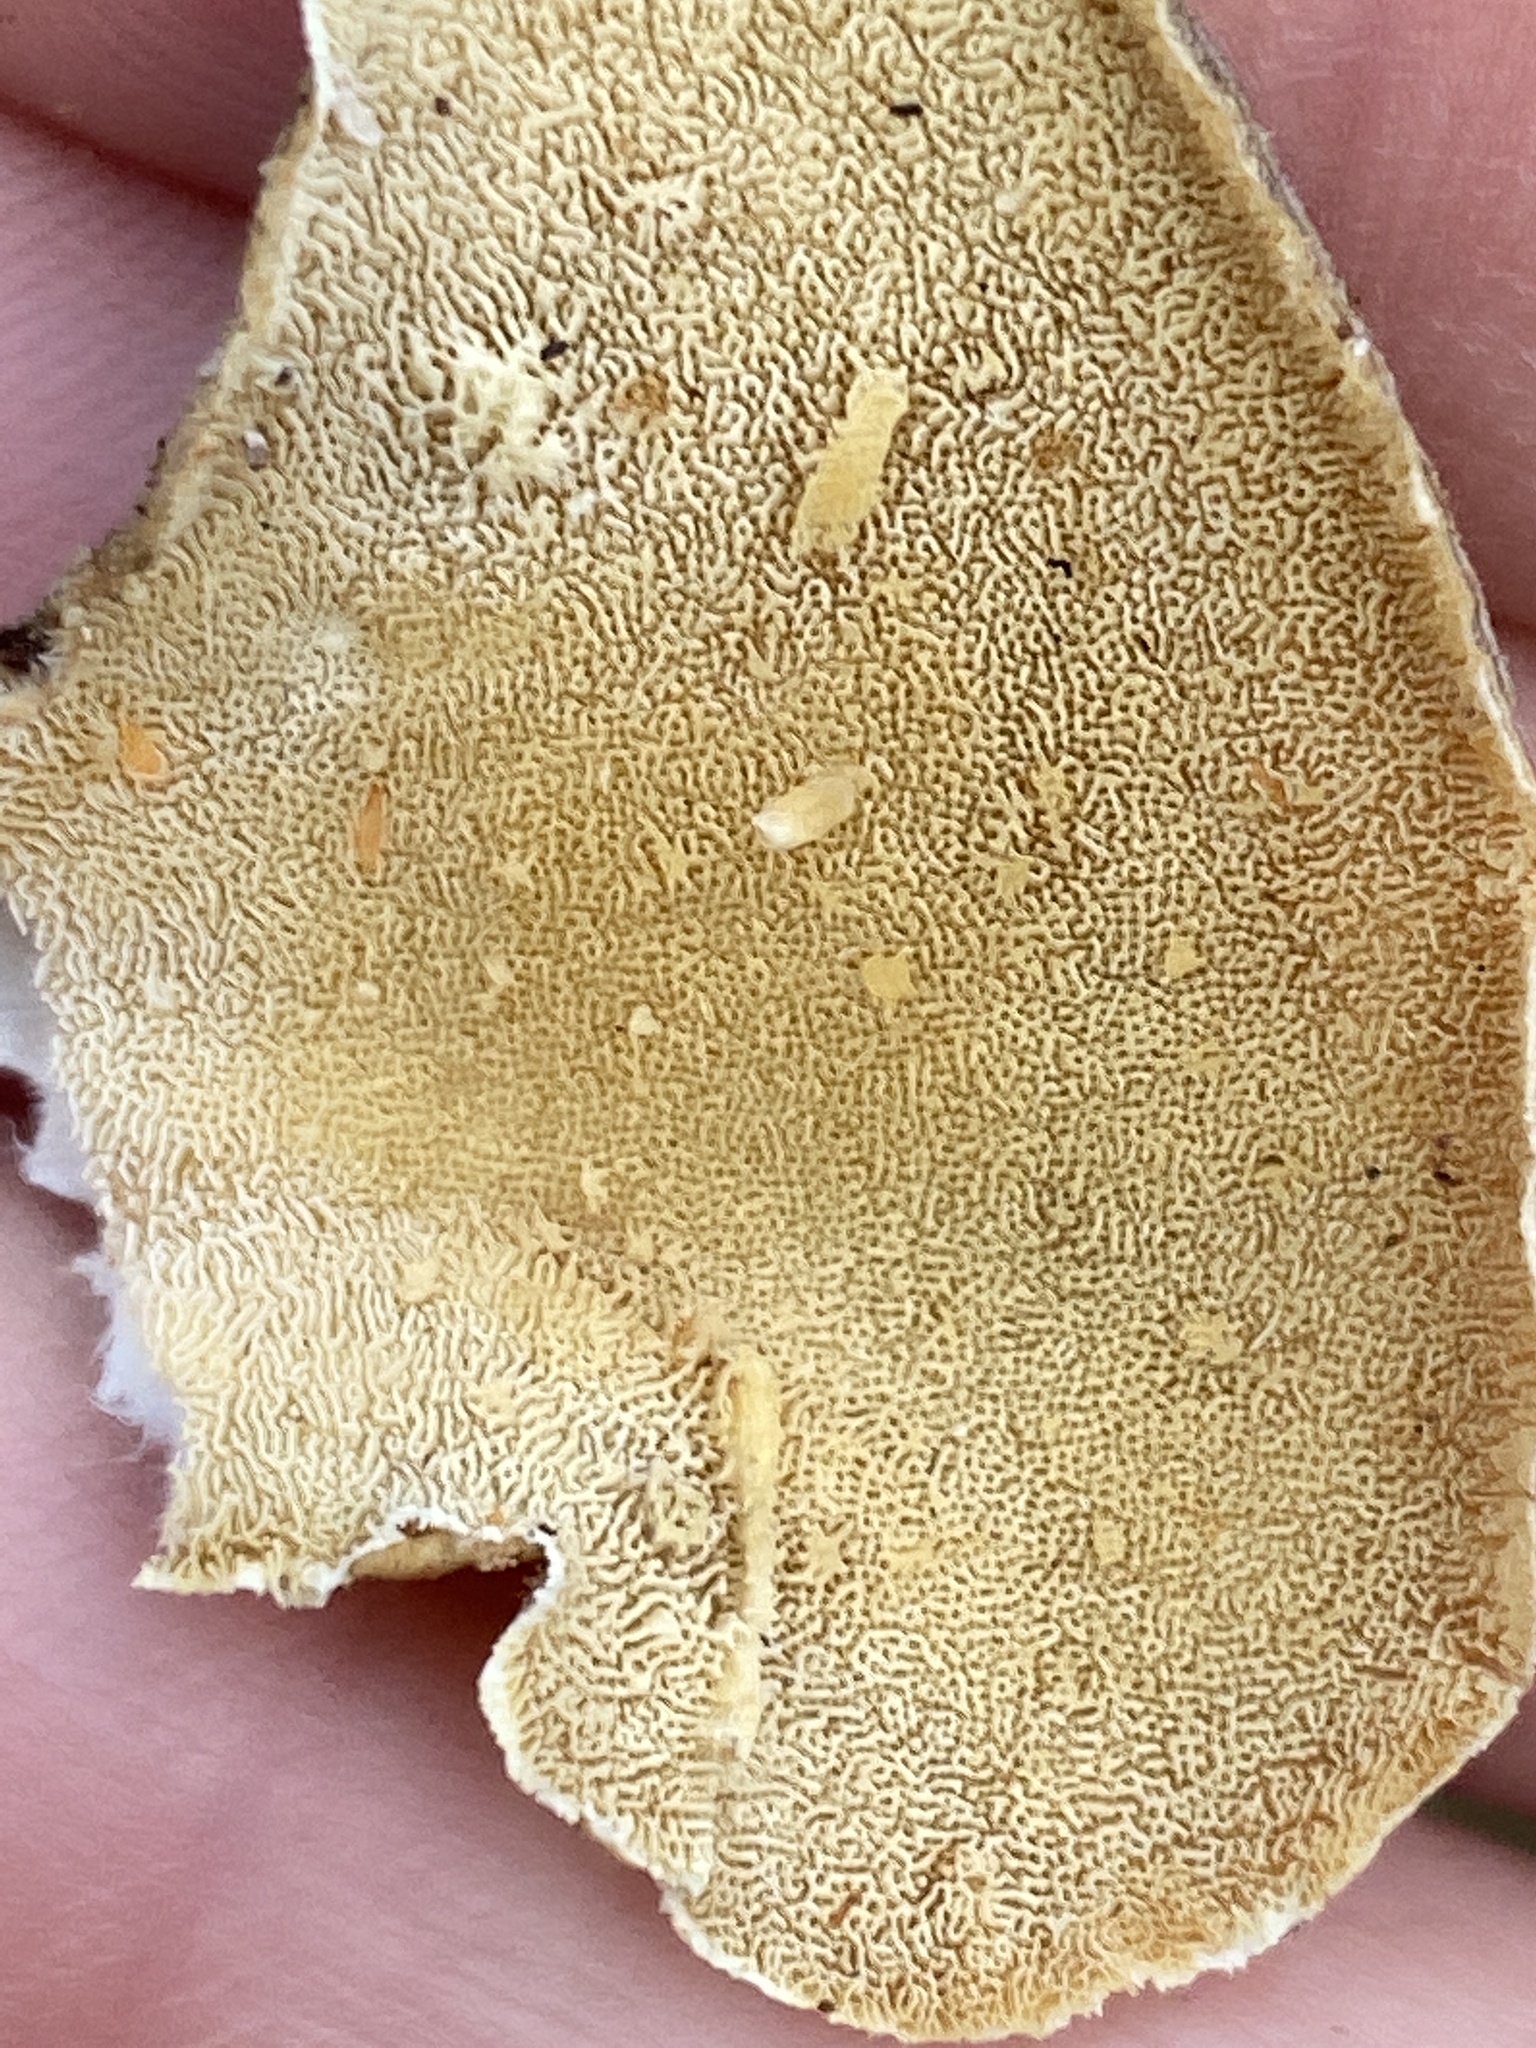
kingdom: Fungi
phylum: Basidiomycota
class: Agaricomycetes
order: Polyporales
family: Polyporaceae
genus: Trametes
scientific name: Trametes hirsuta
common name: Hairy bracket
